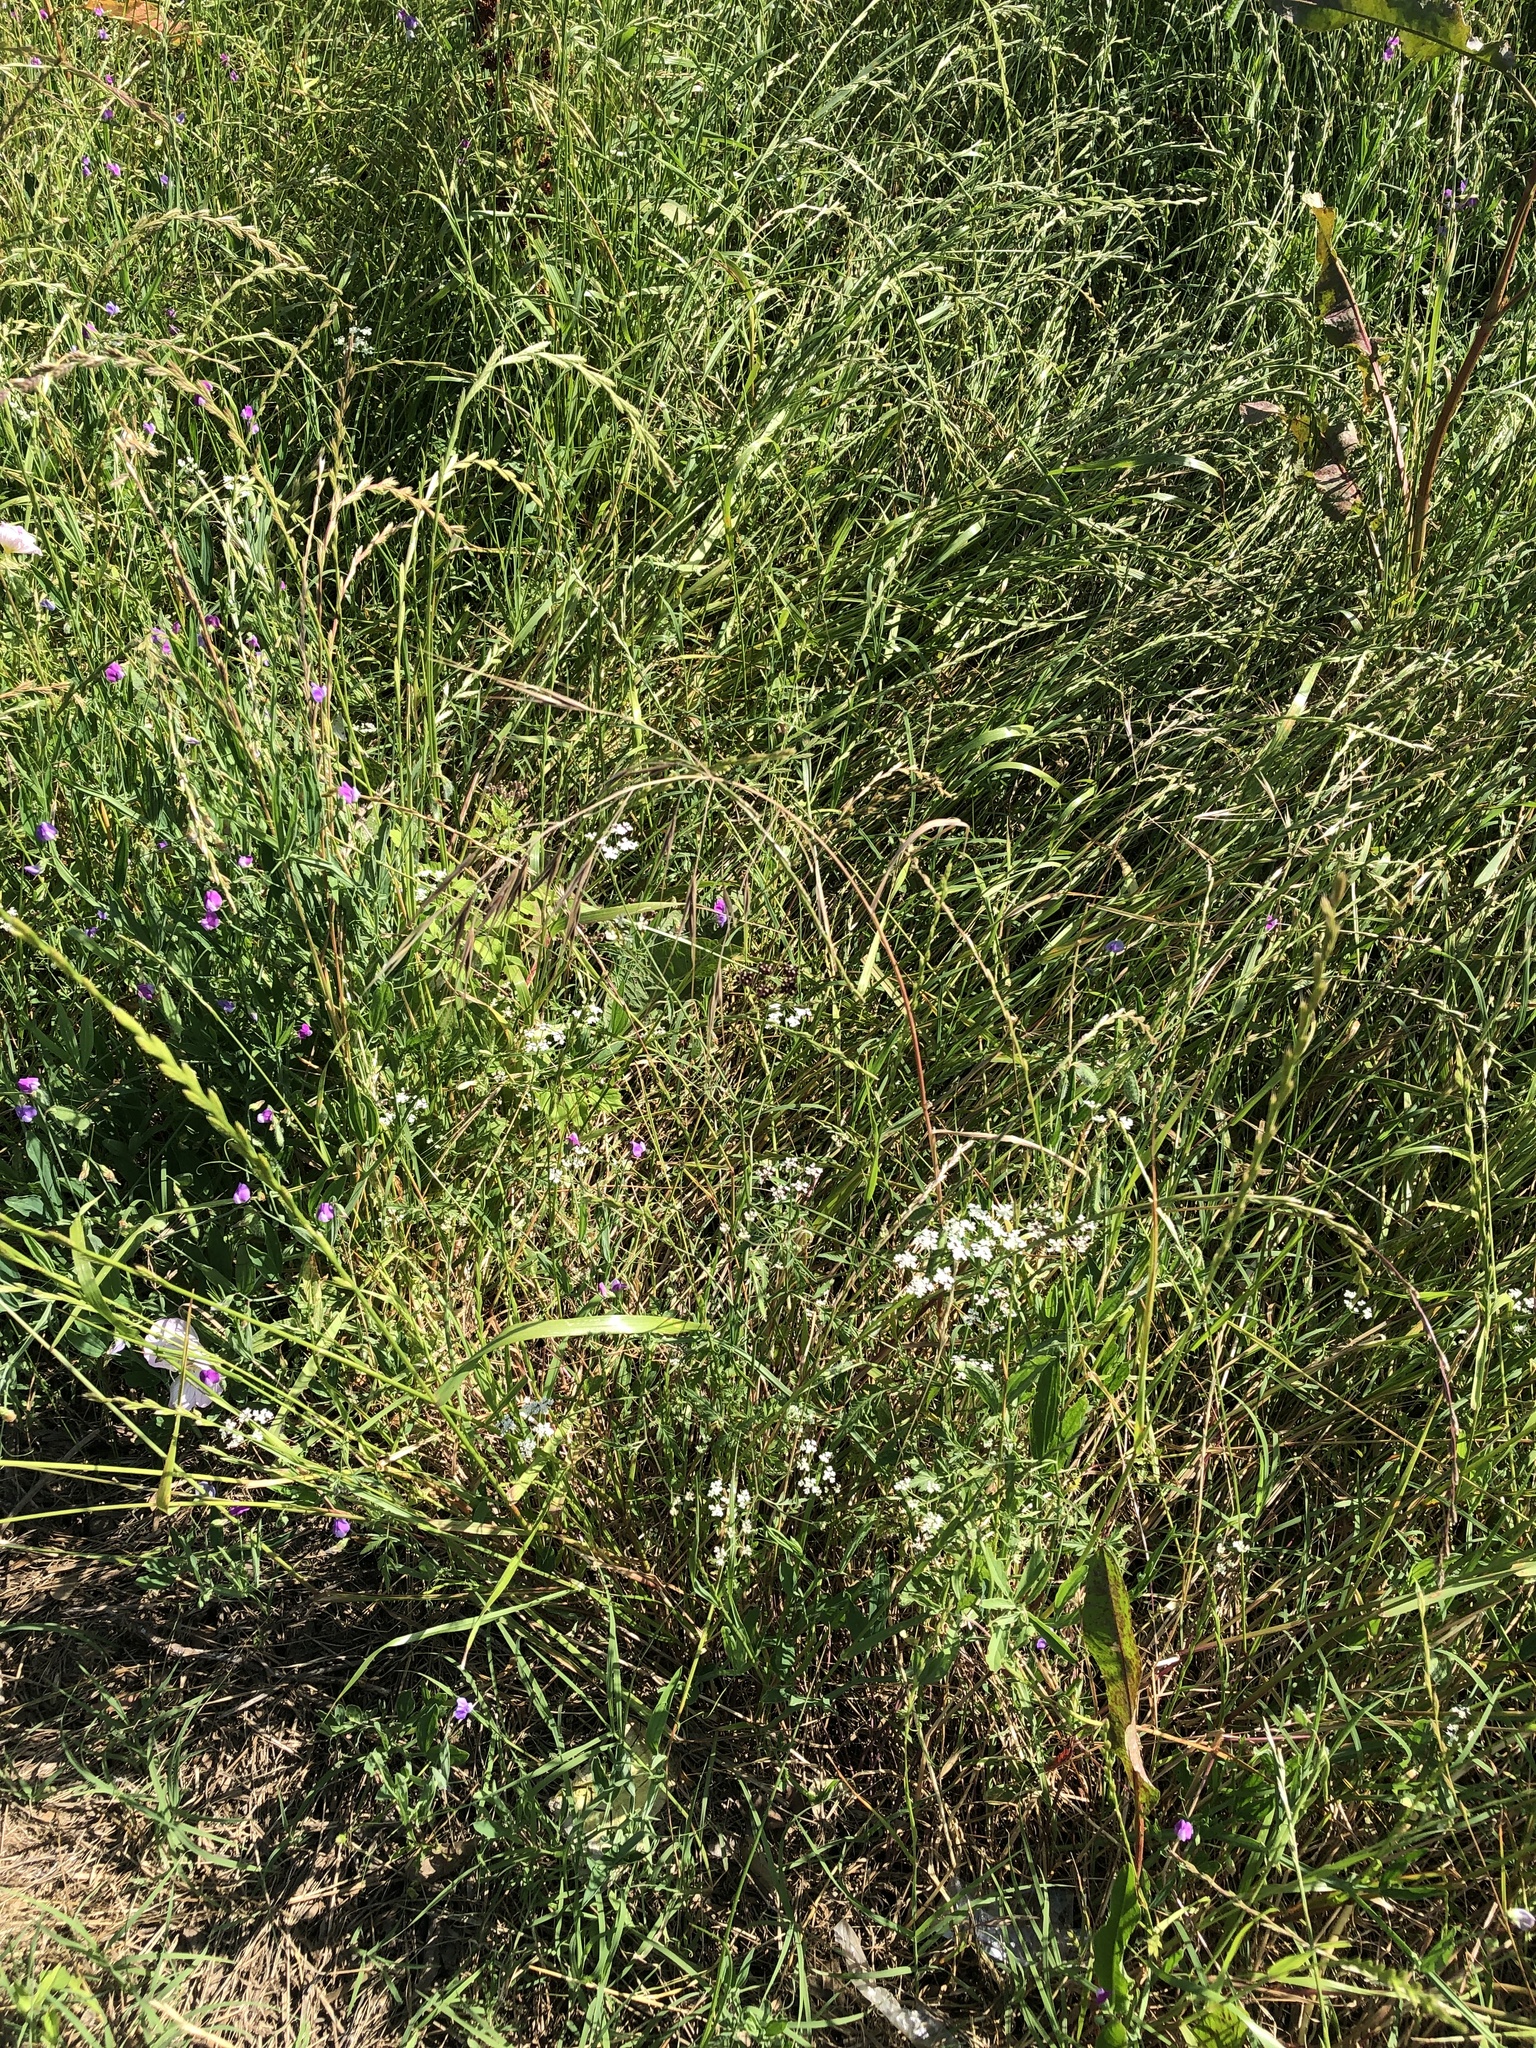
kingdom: Plantae
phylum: Tracheophyta
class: Liliopsida
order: Poales
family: Poaceae
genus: Bromus
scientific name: Bromus diandrus
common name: Ripgut brome
